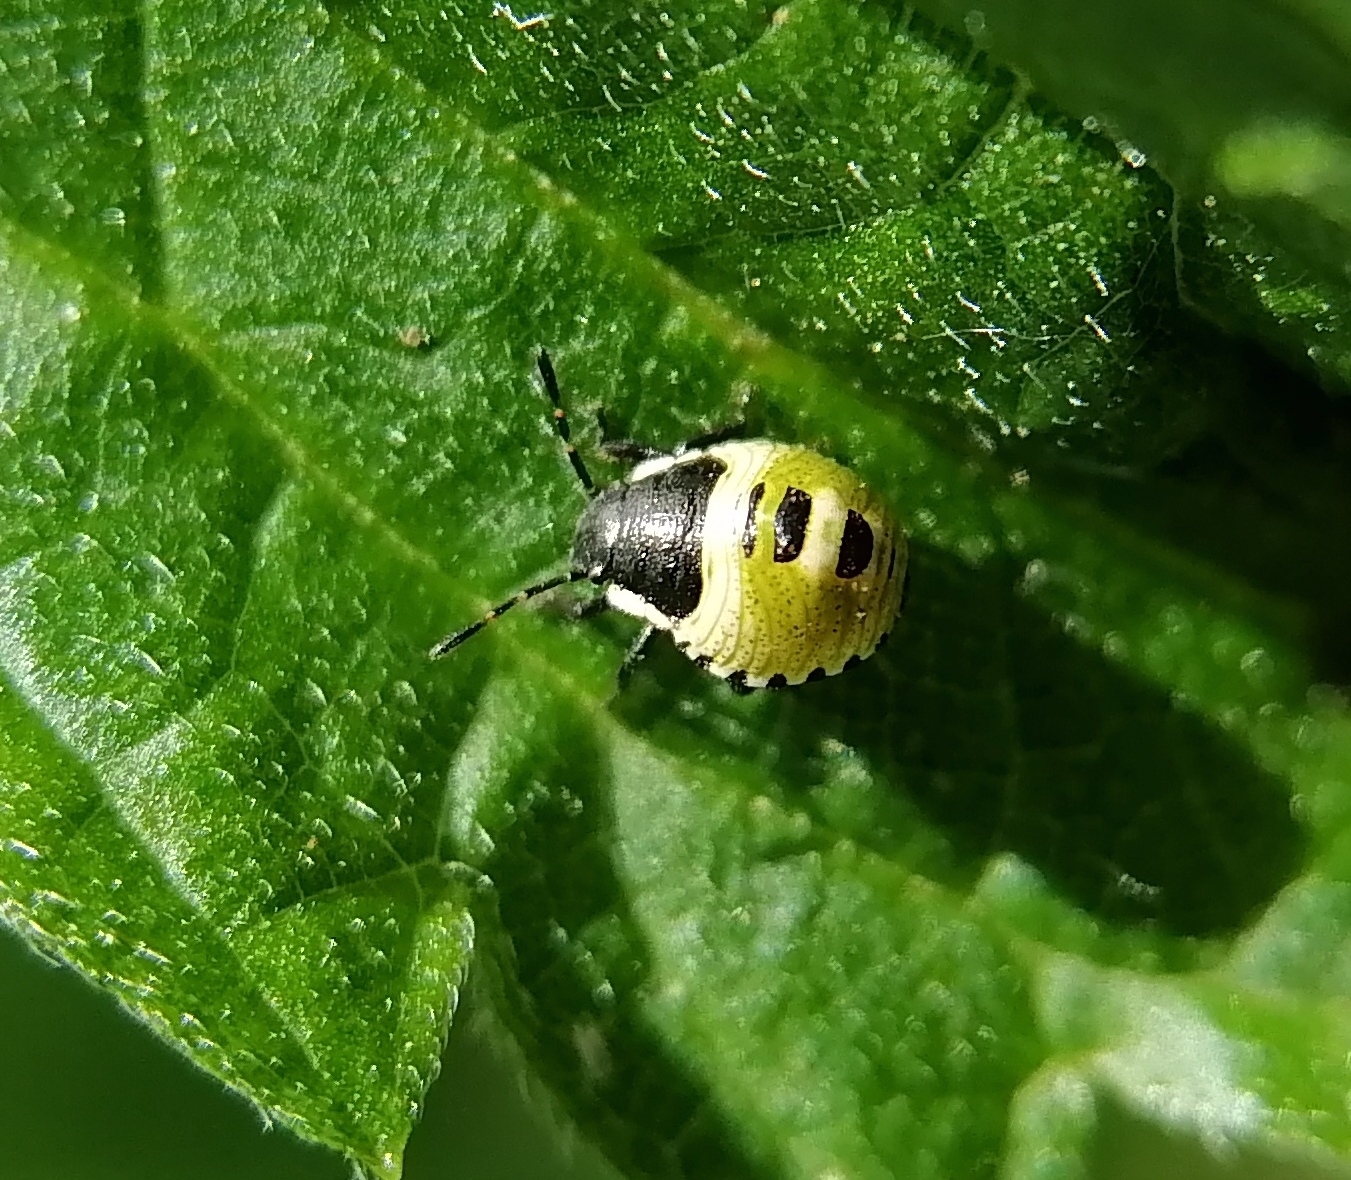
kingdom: Animalia
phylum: Arthropoda
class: Insecta
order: Hemiptera
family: Pentatomidae
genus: Palomena
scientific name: Palomena prasina
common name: Green shieldbug
